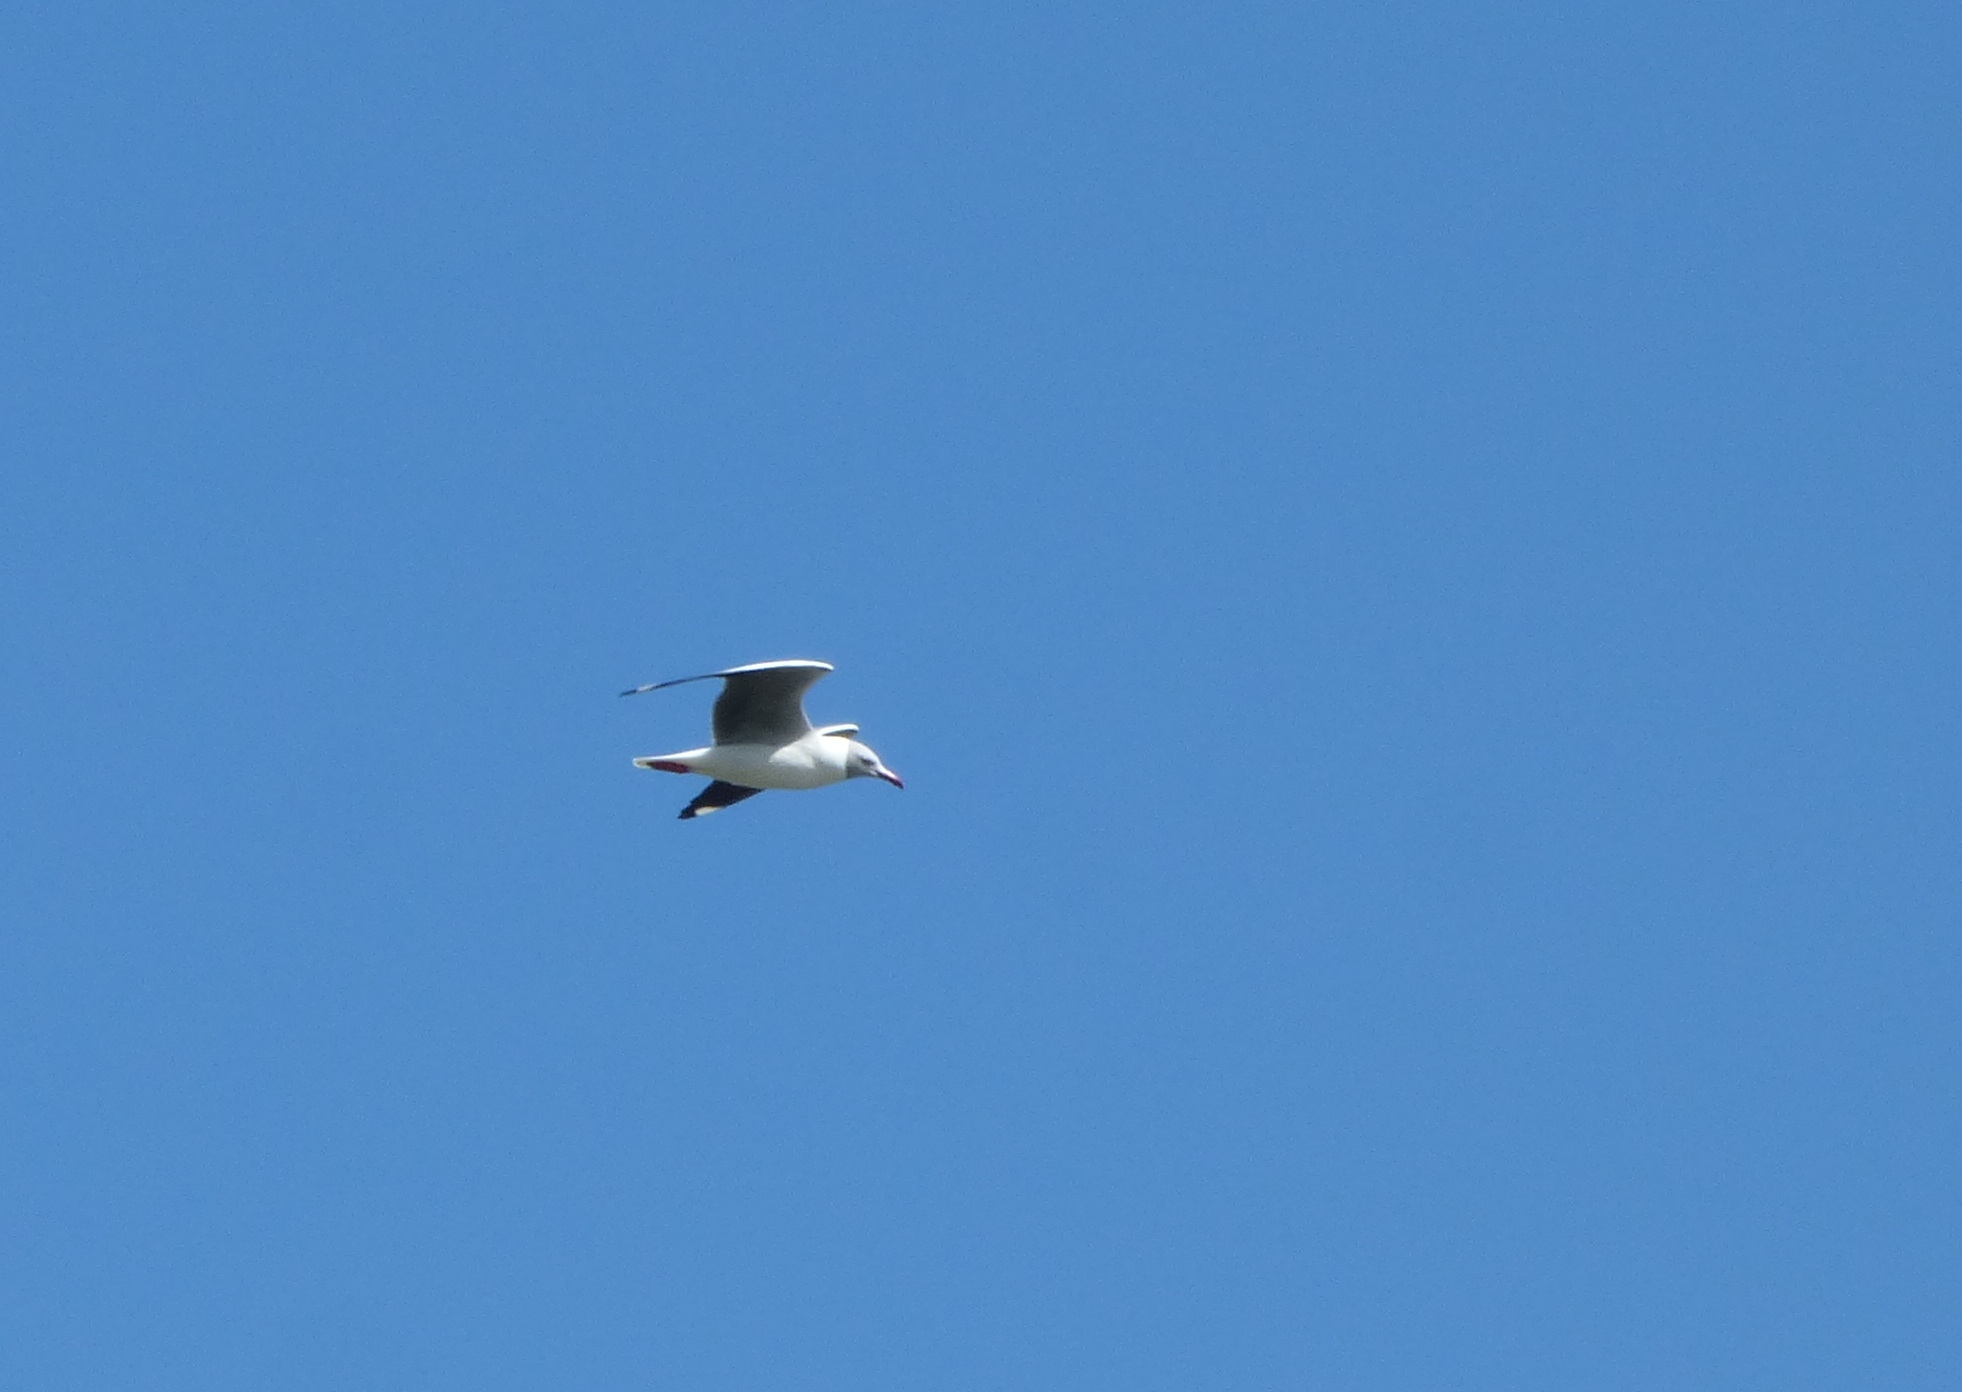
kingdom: Animalia
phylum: Chordata
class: Aves
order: Charadriiformes
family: Laridae
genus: Chroicocephalus
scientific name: Chroicocephalus cirrocephalus
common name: Grey-headed gull
